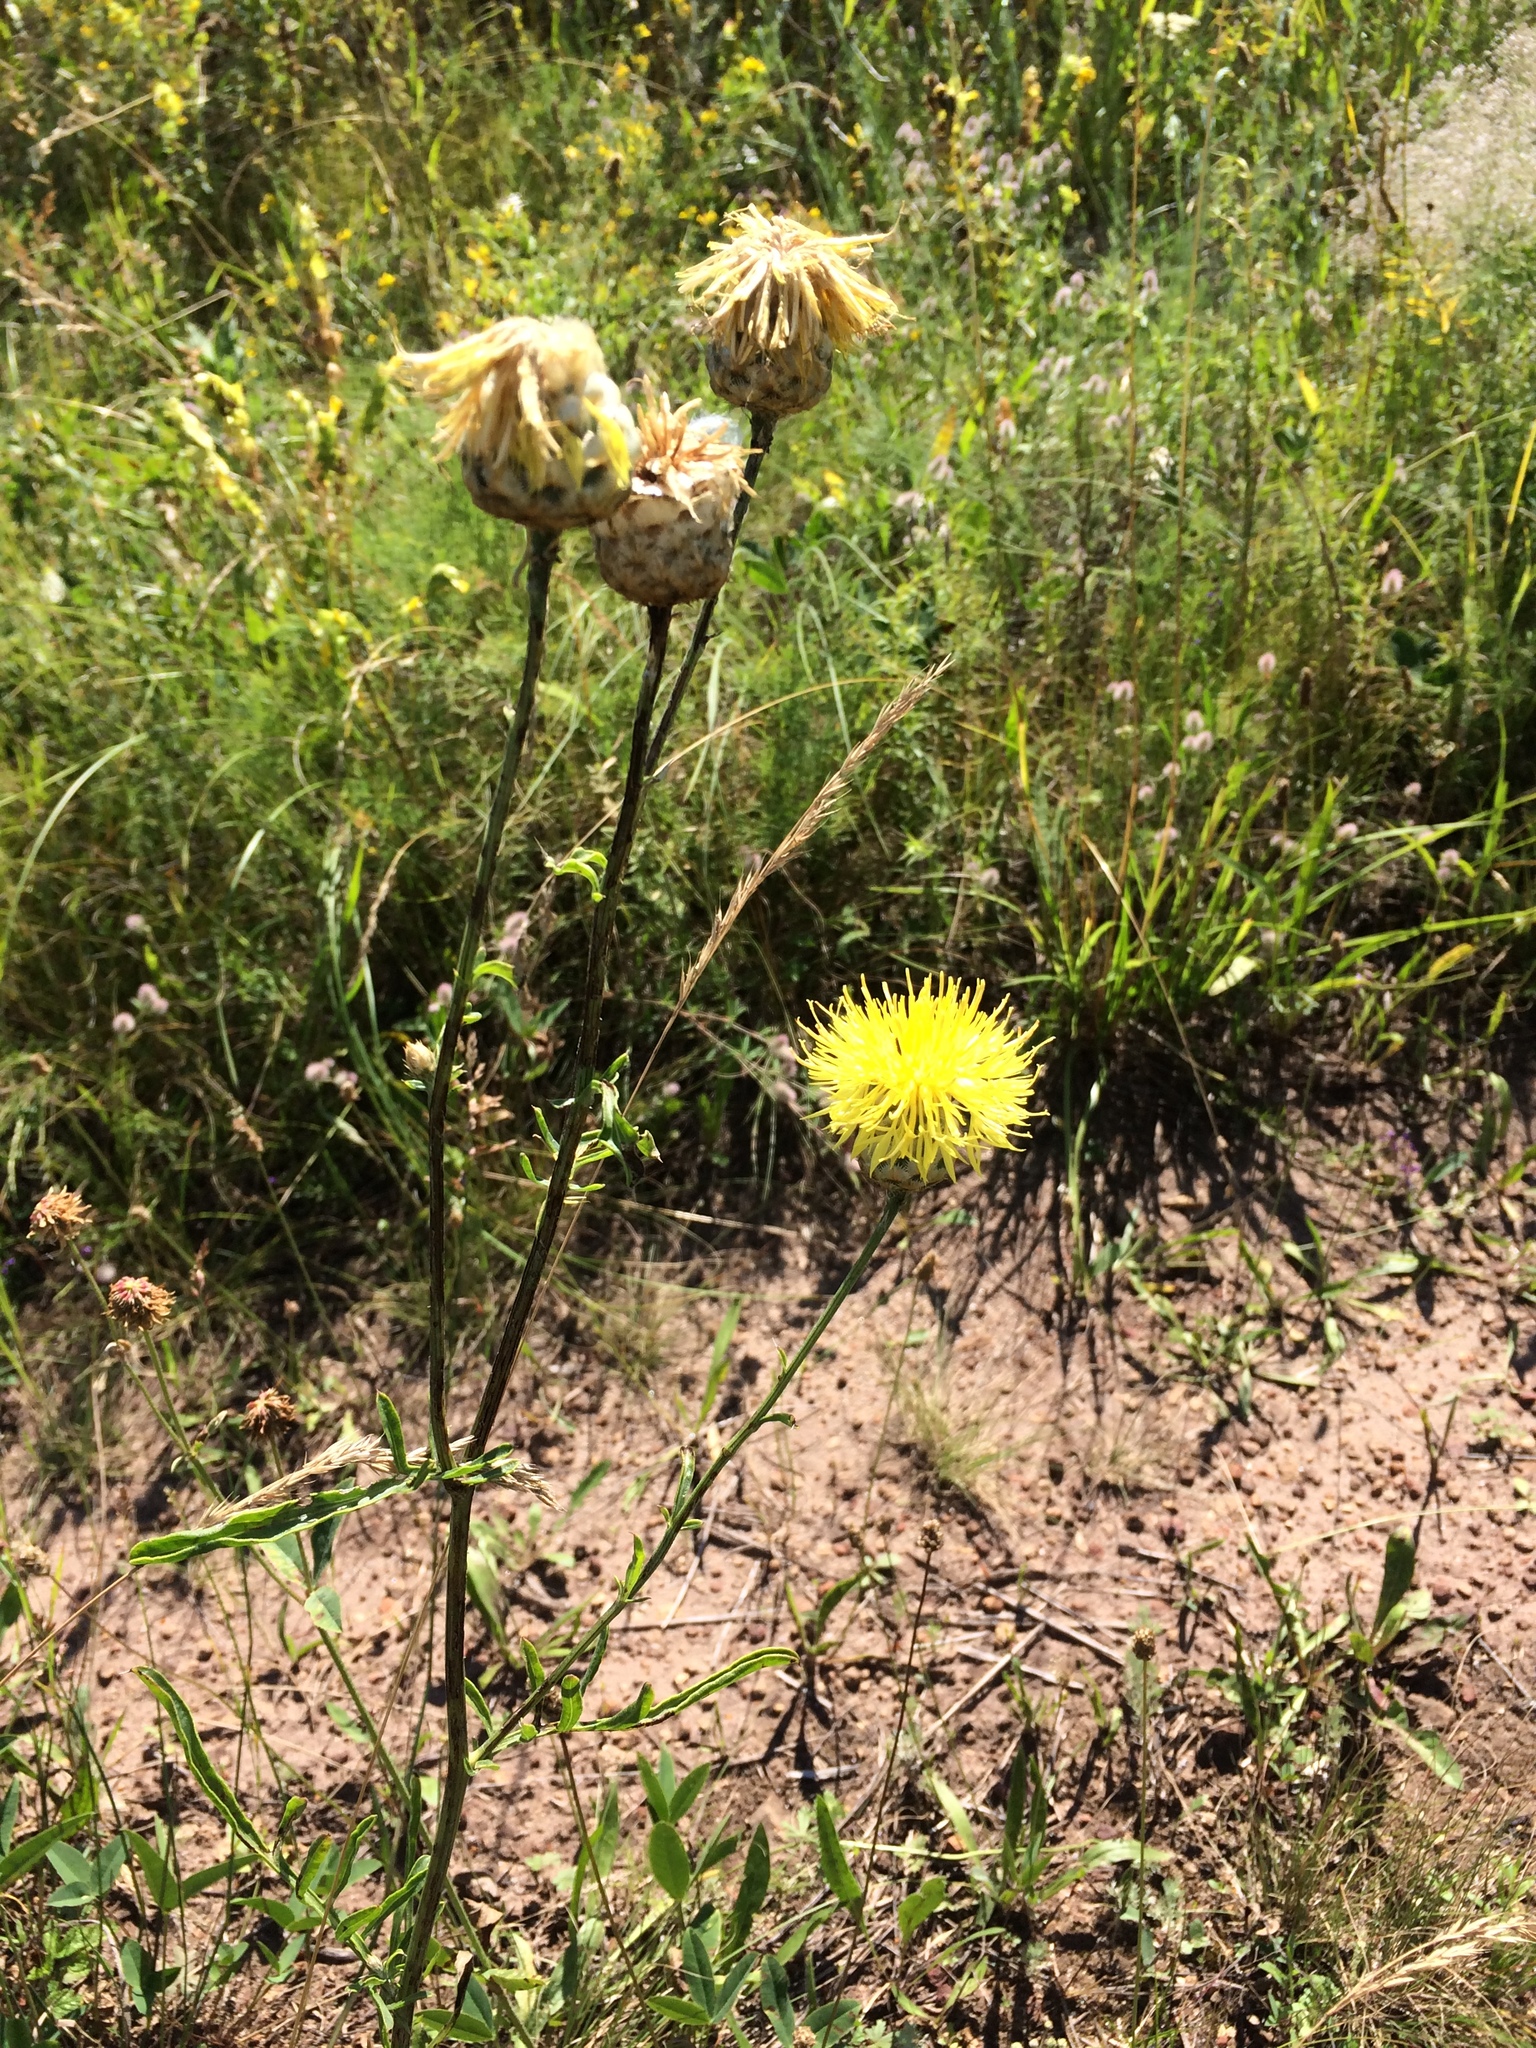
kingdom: Plantae
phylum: Tracheophyta
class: Magnoliopsida
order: Asterales
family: Asteraceae
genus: Centaurea
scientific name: Centaurea orientalis
